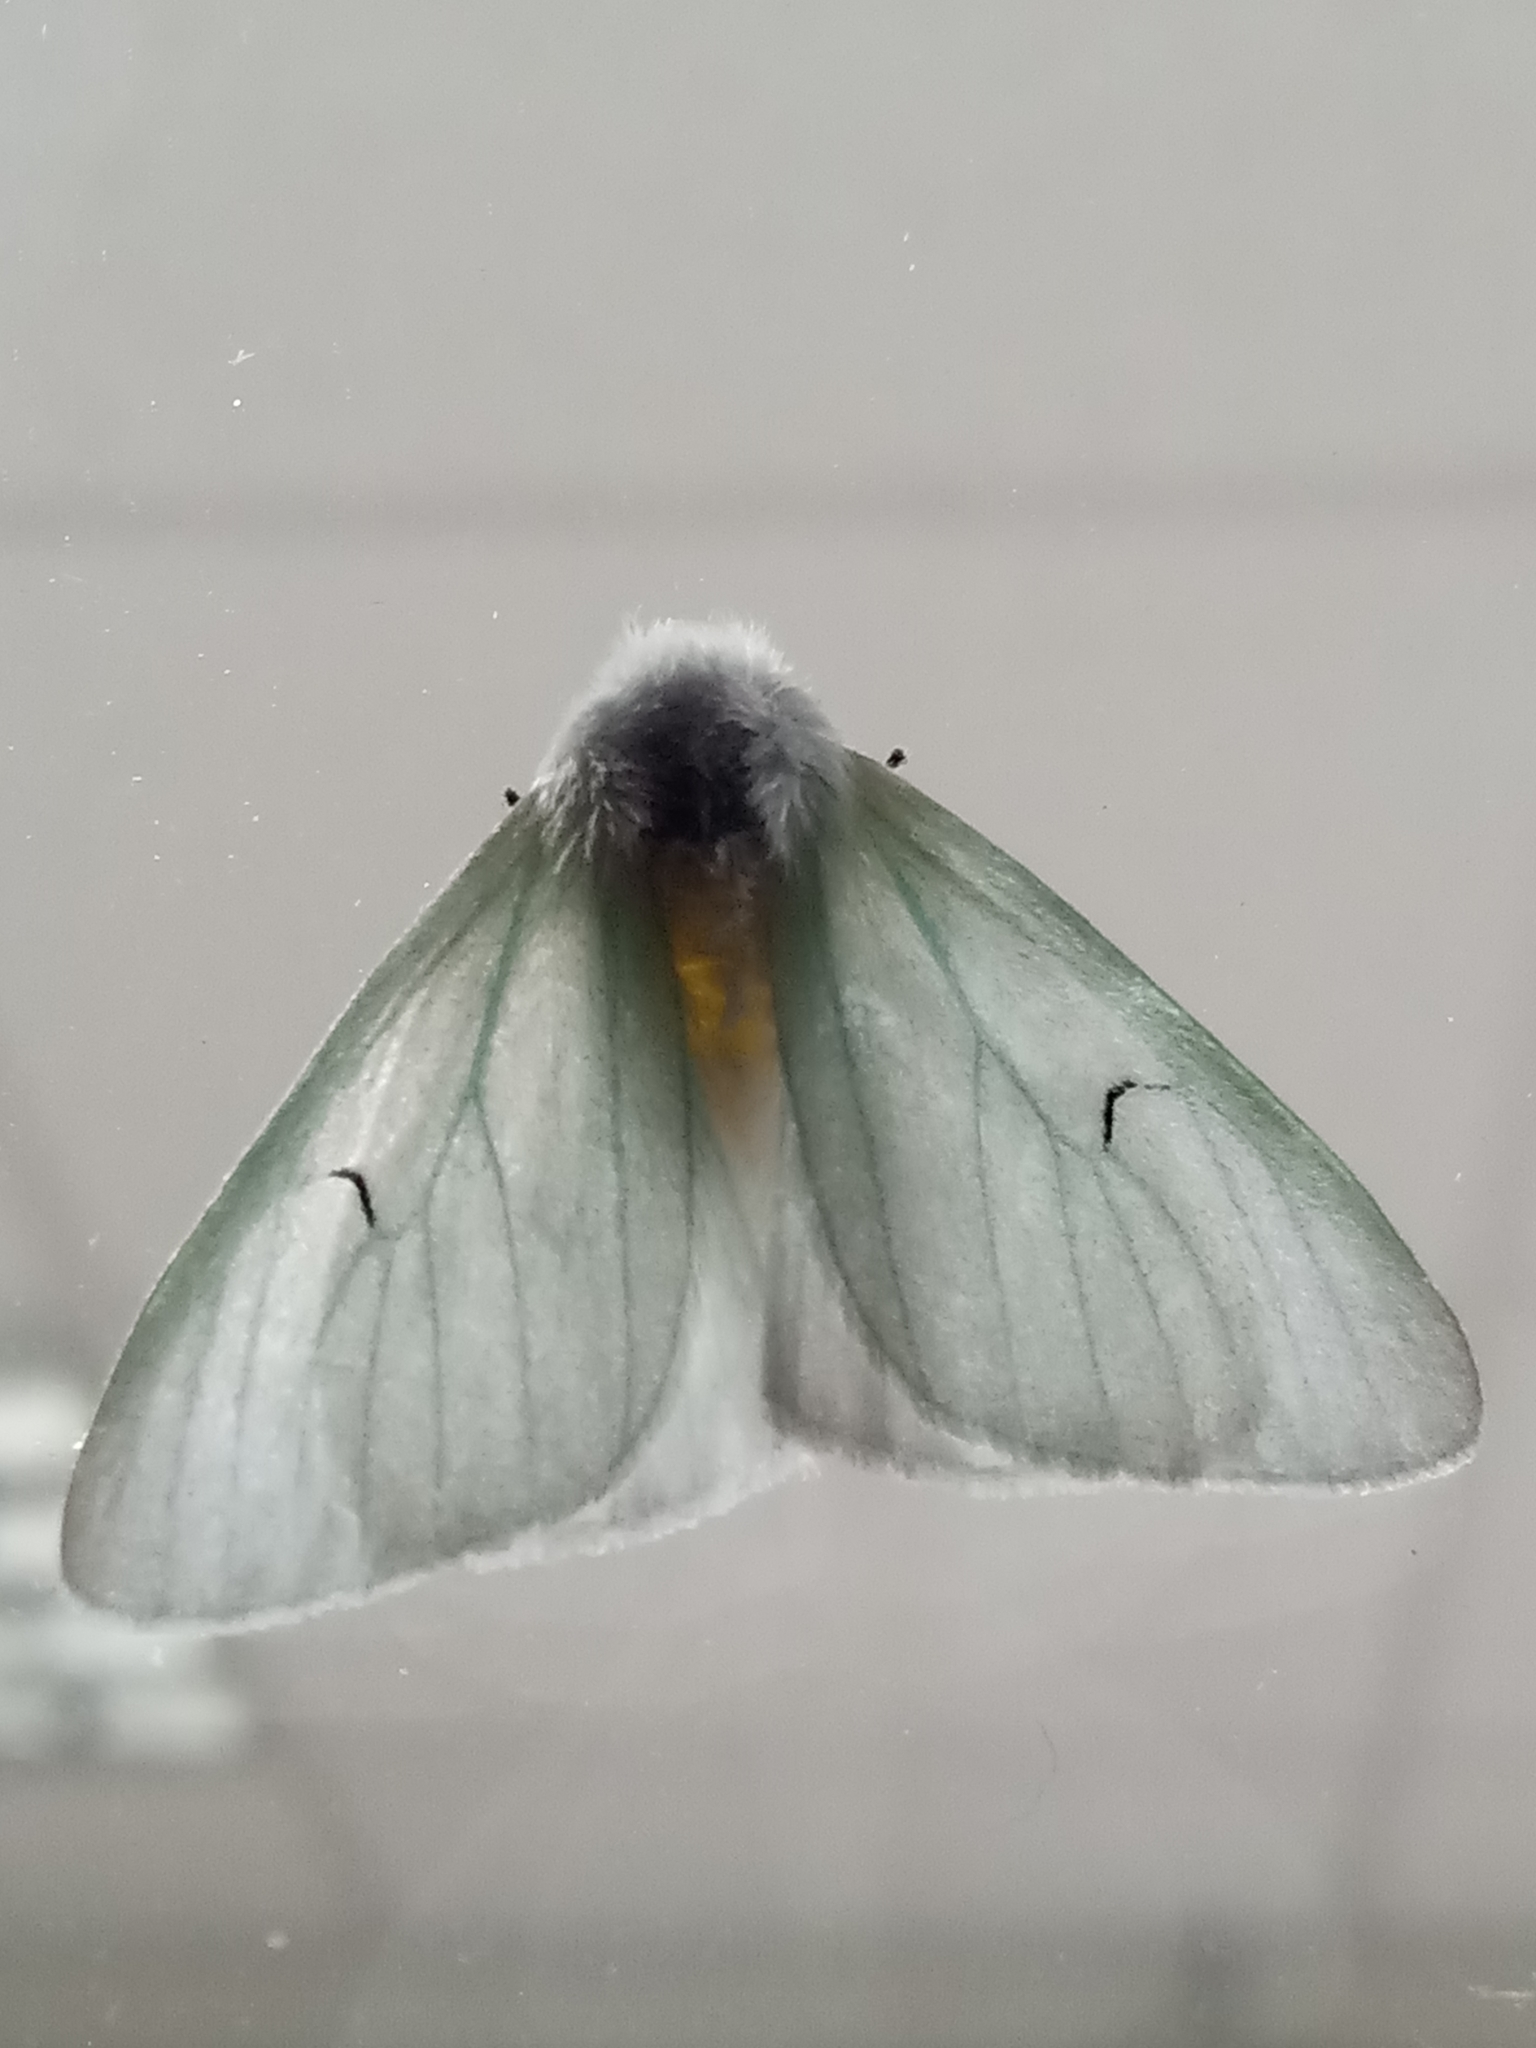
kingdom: Animalia
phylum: Arthropoda
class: Insecta
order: Lepidoptera
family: Erebidae
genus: Arctornis
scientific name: Arctornis l-nigrum
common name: Black v moth
